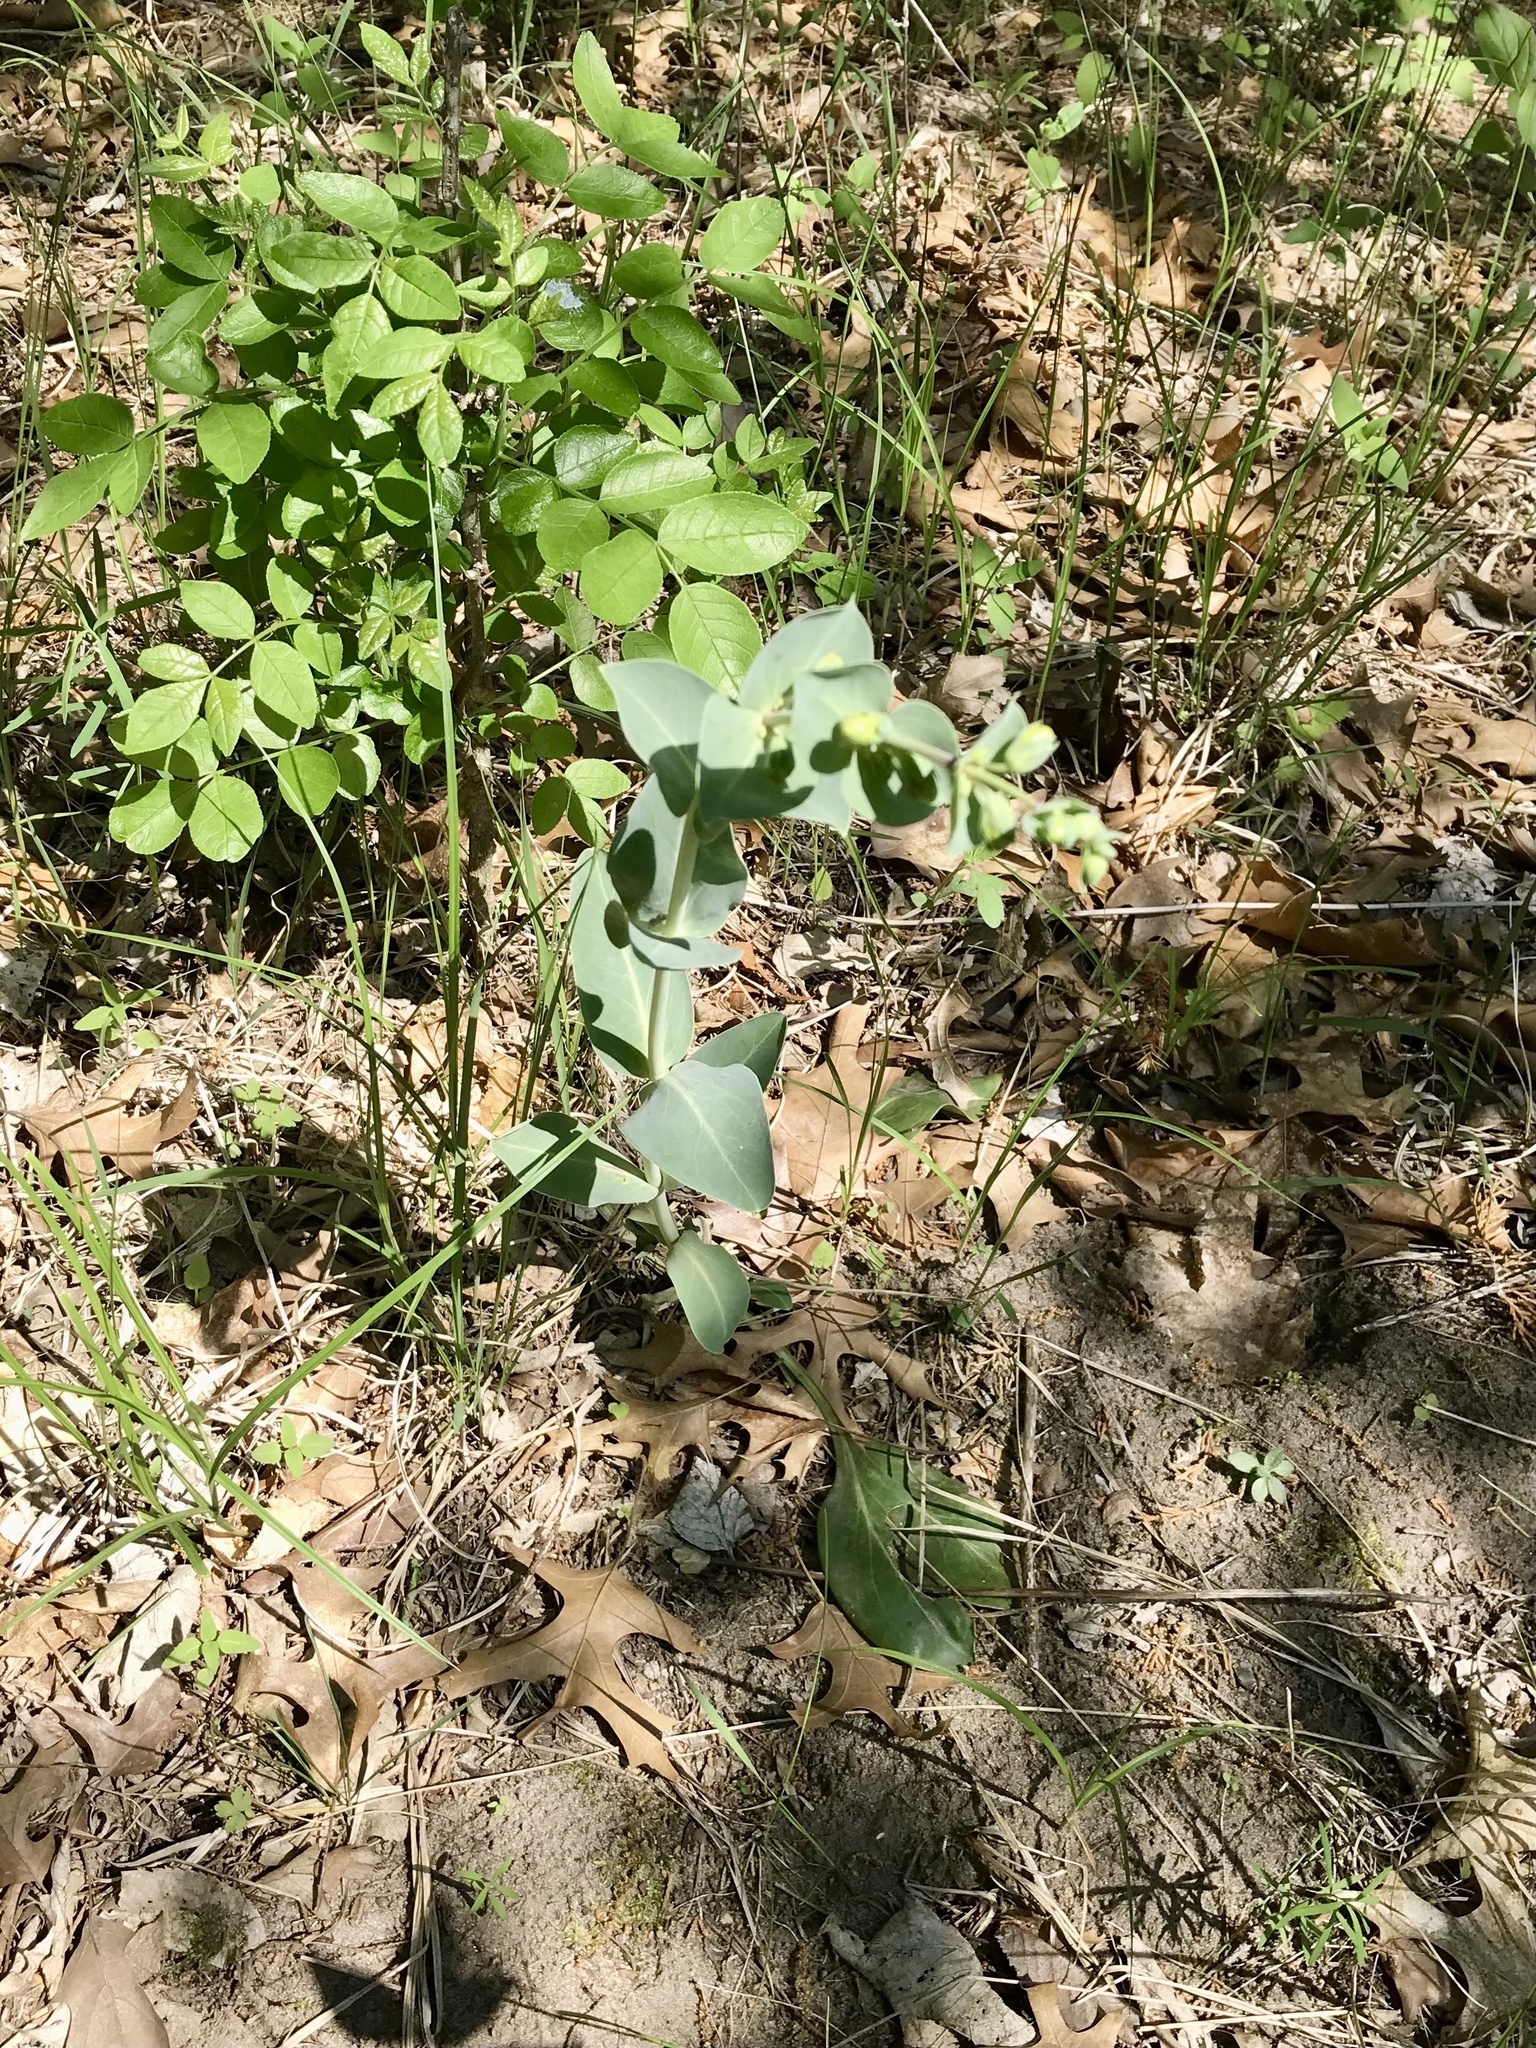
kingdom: Plantae
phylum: Tracheophyta
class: Magnoliopsida
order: Lamiales
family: Plantaginaceae
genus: Penstemon
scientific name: Penstemon
